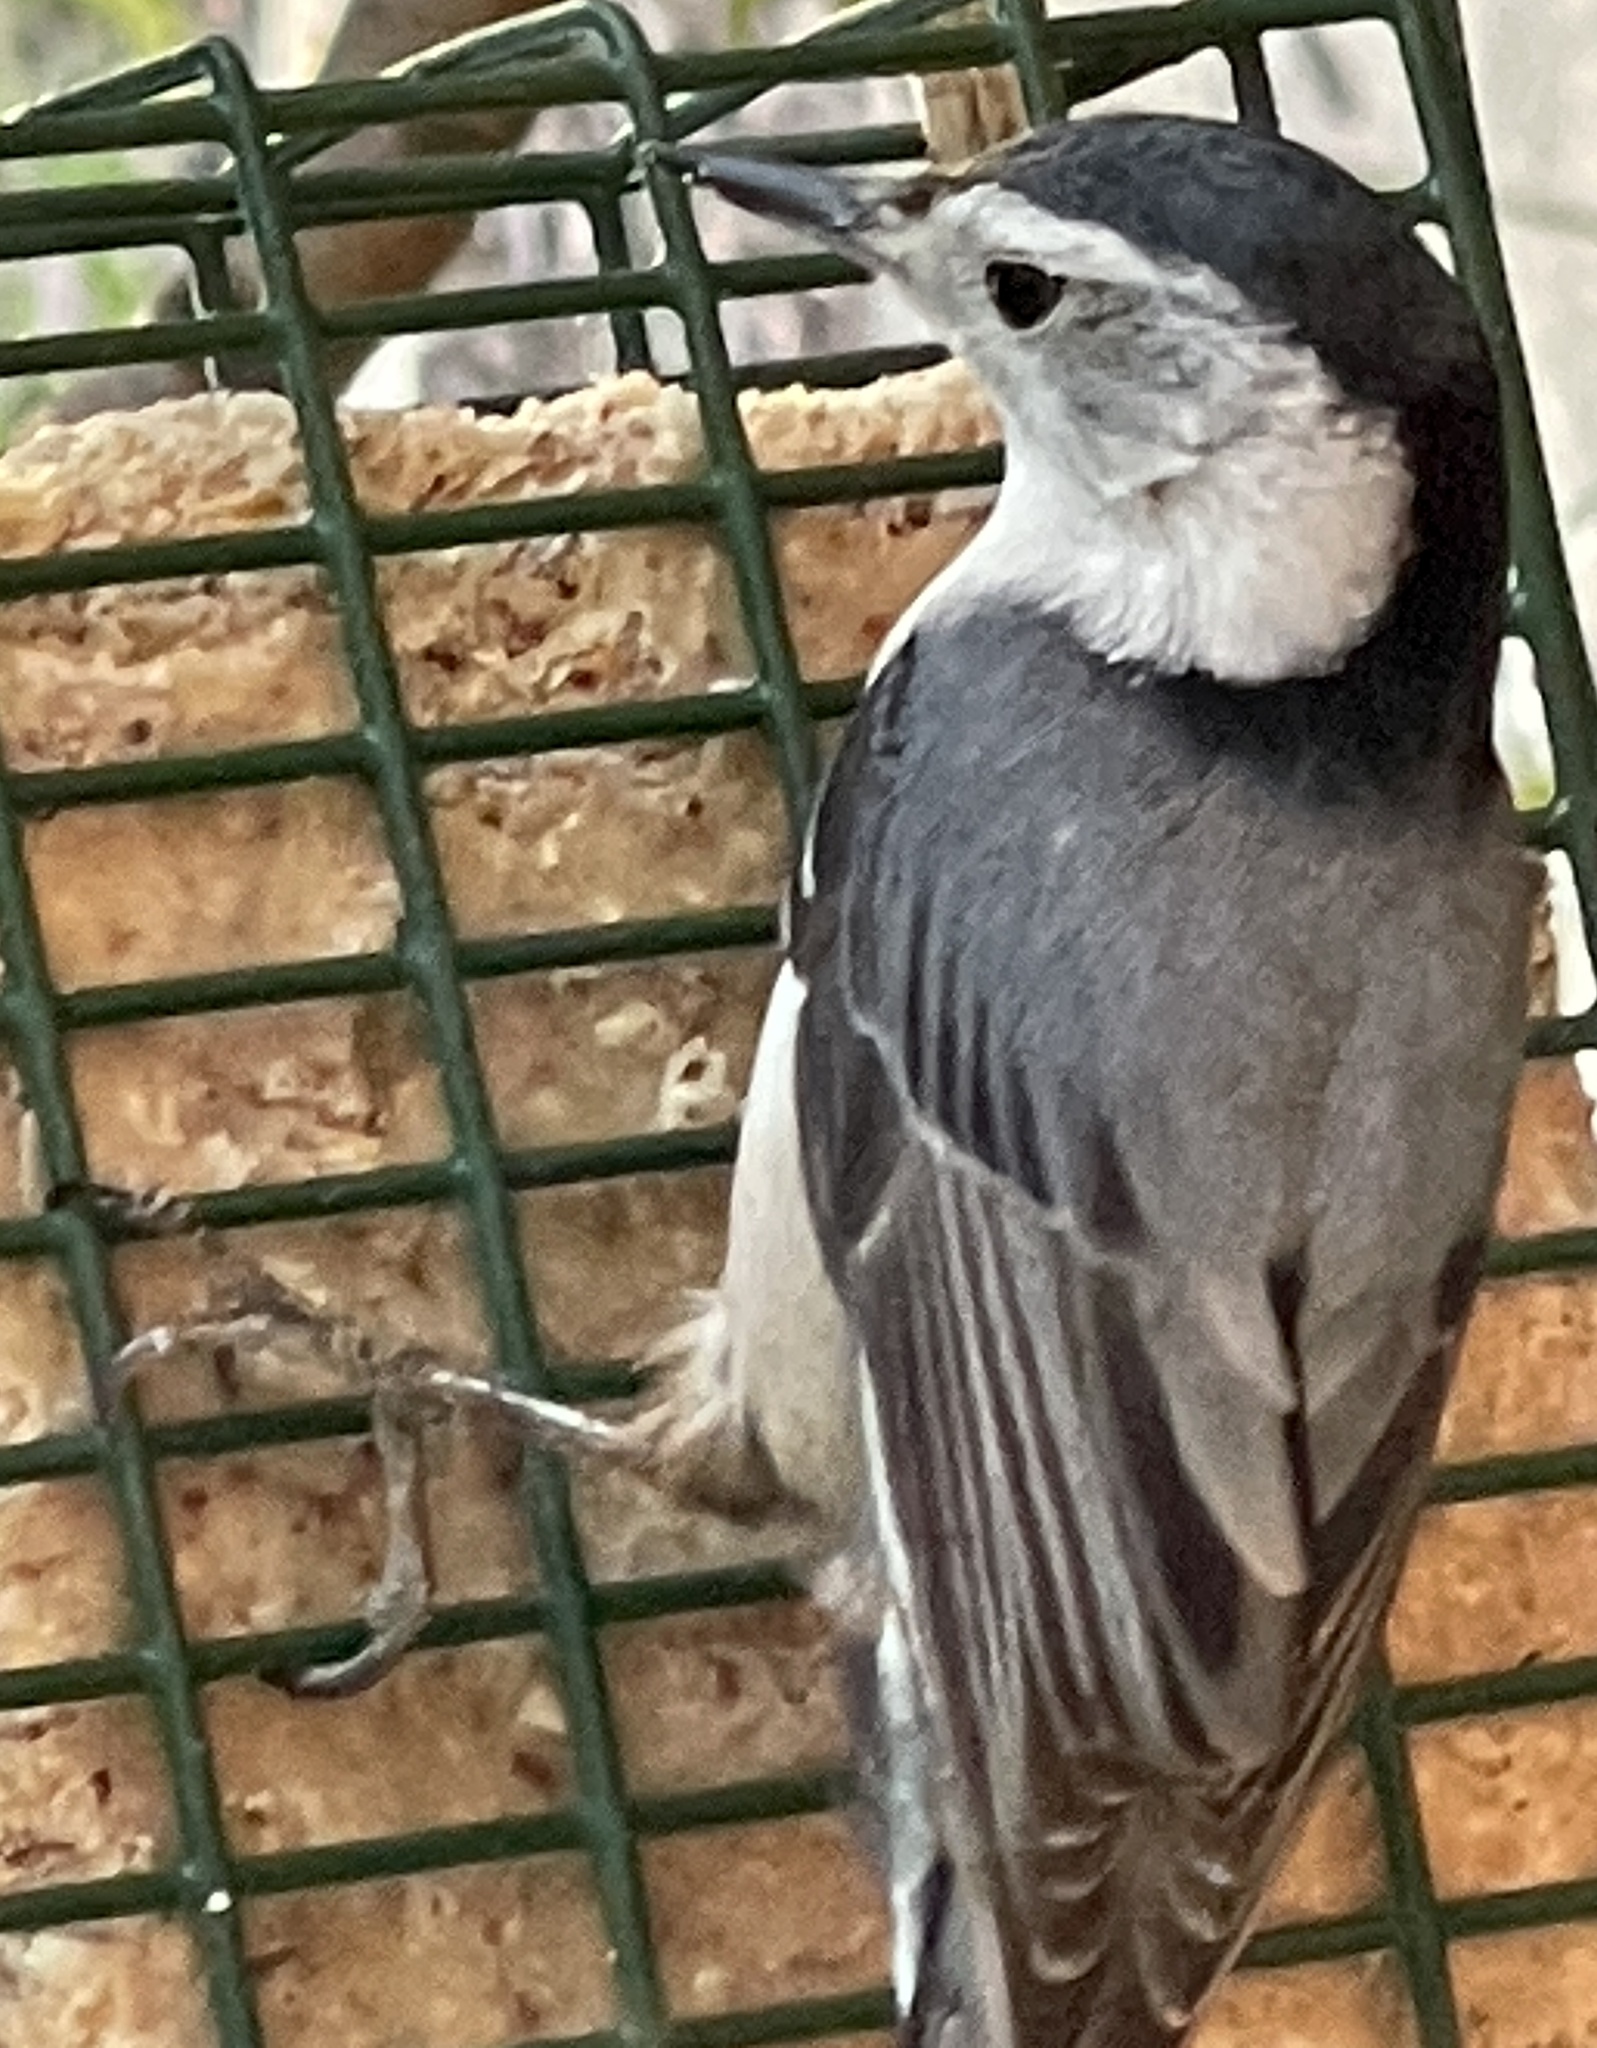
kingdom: Animalia
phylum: Chordata
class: Aves
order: Passeriformes
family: Sittidae
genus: Sitta
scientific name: Sitta carolinensis
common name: White-breasted nuthatch
